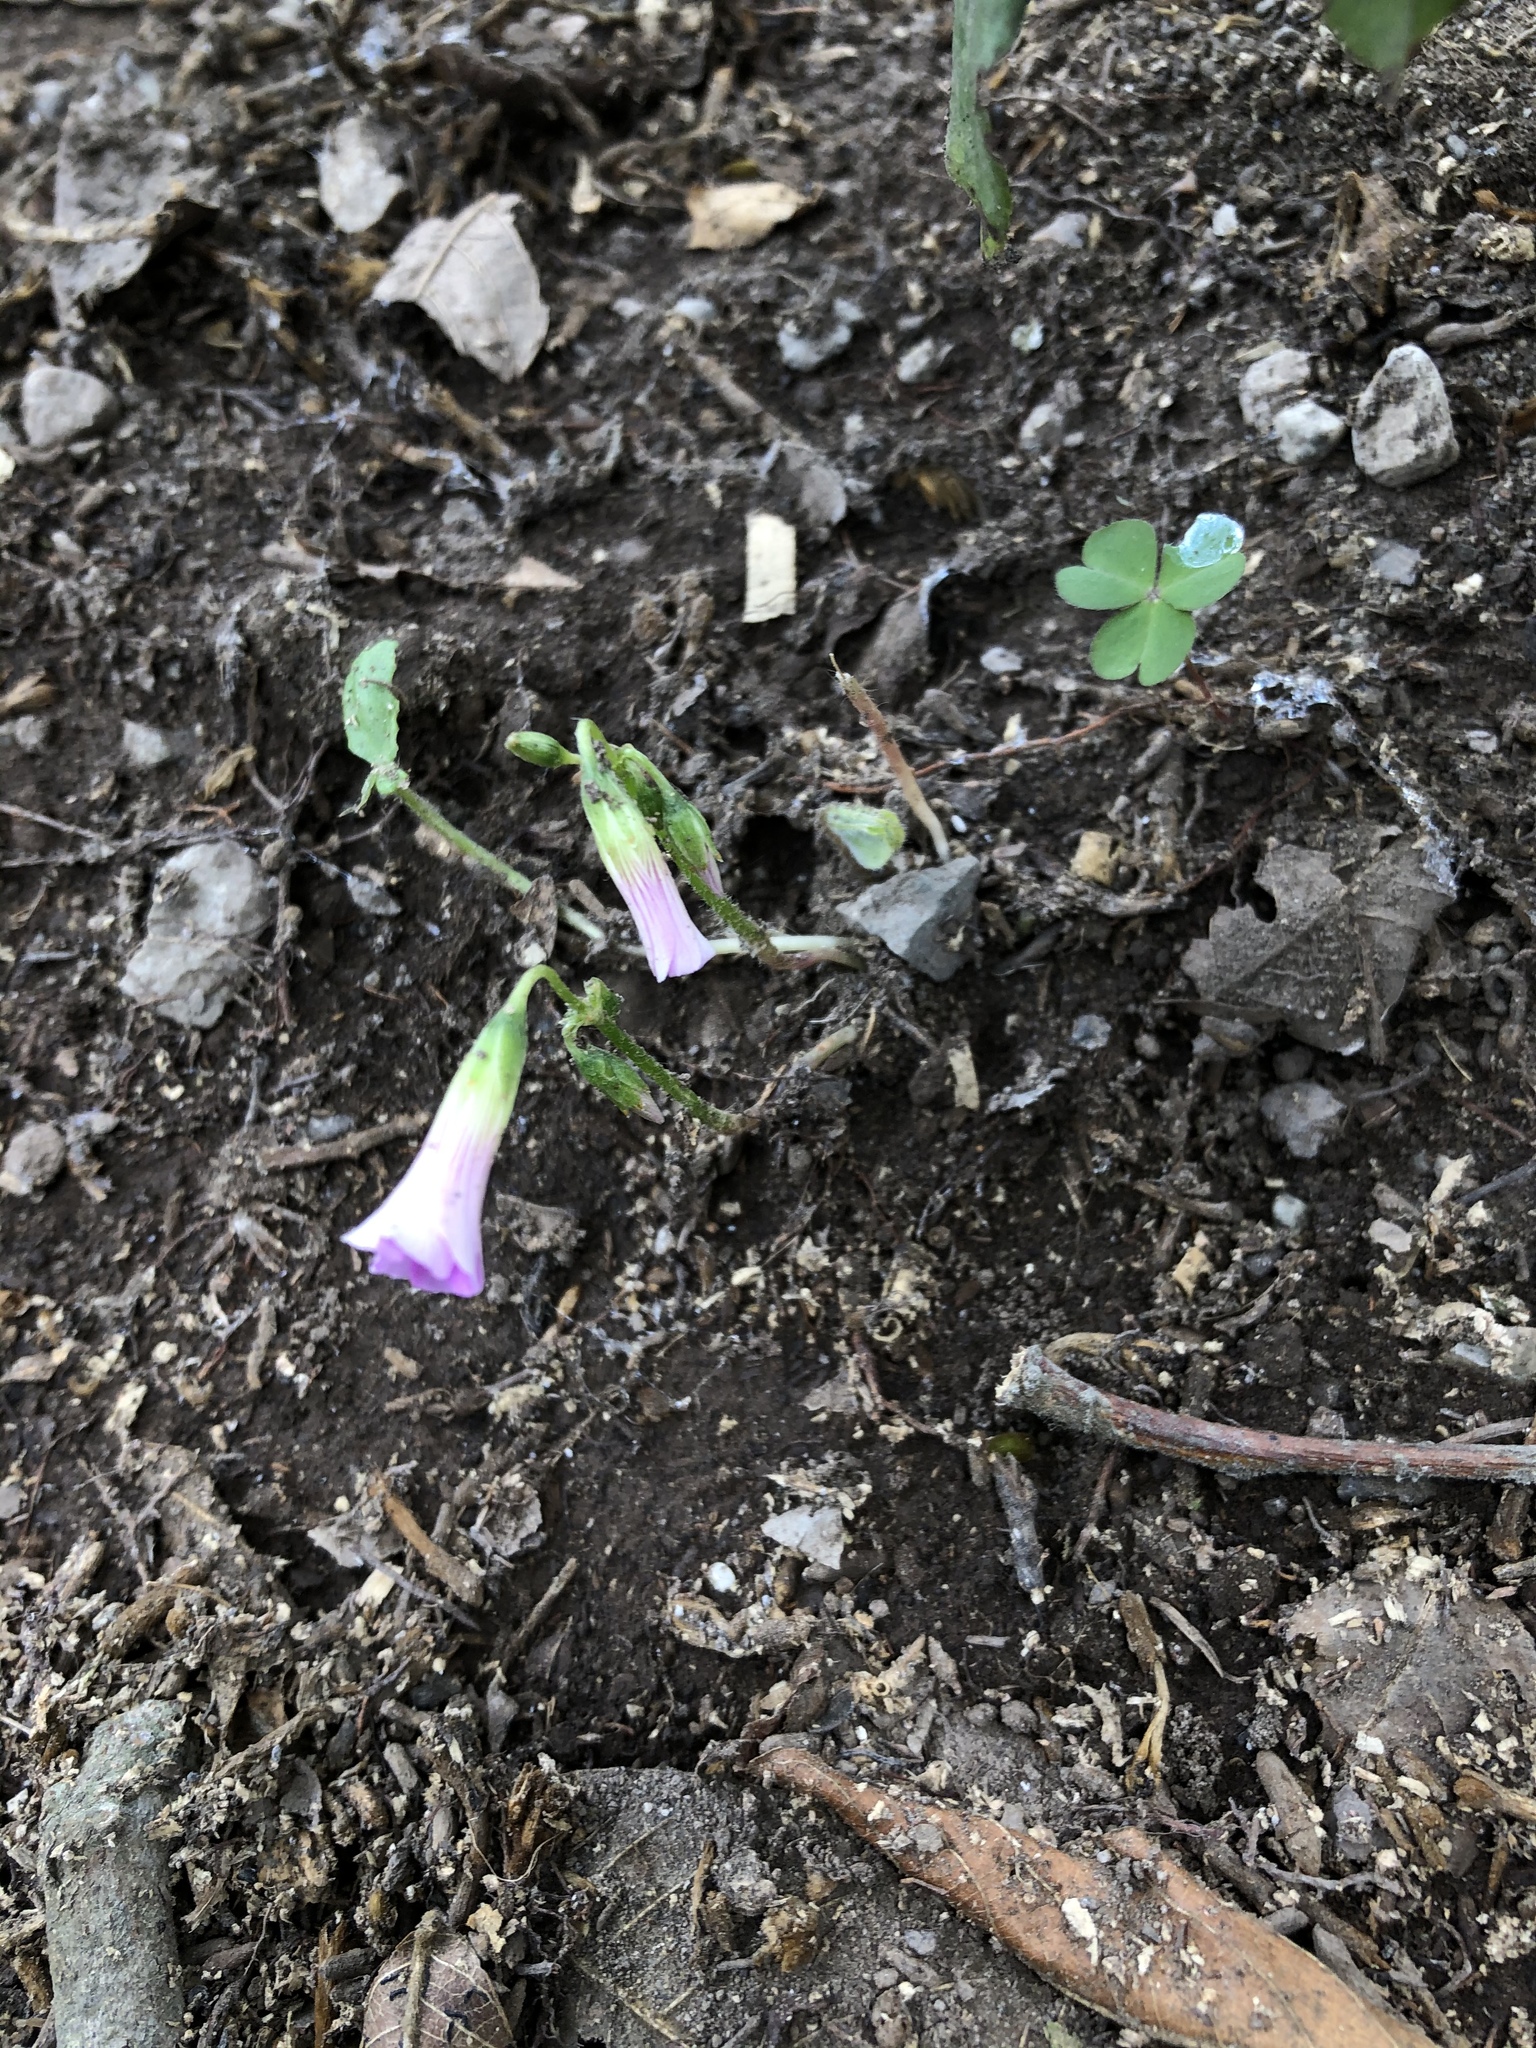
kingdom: Plantae
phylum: Tracheophyta
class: Magnoliopsida
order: Oxalidales
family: Oxalidaceae
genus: Oxalis
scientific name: Oxalis debilis
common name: Large-flowered pink-sorrel
